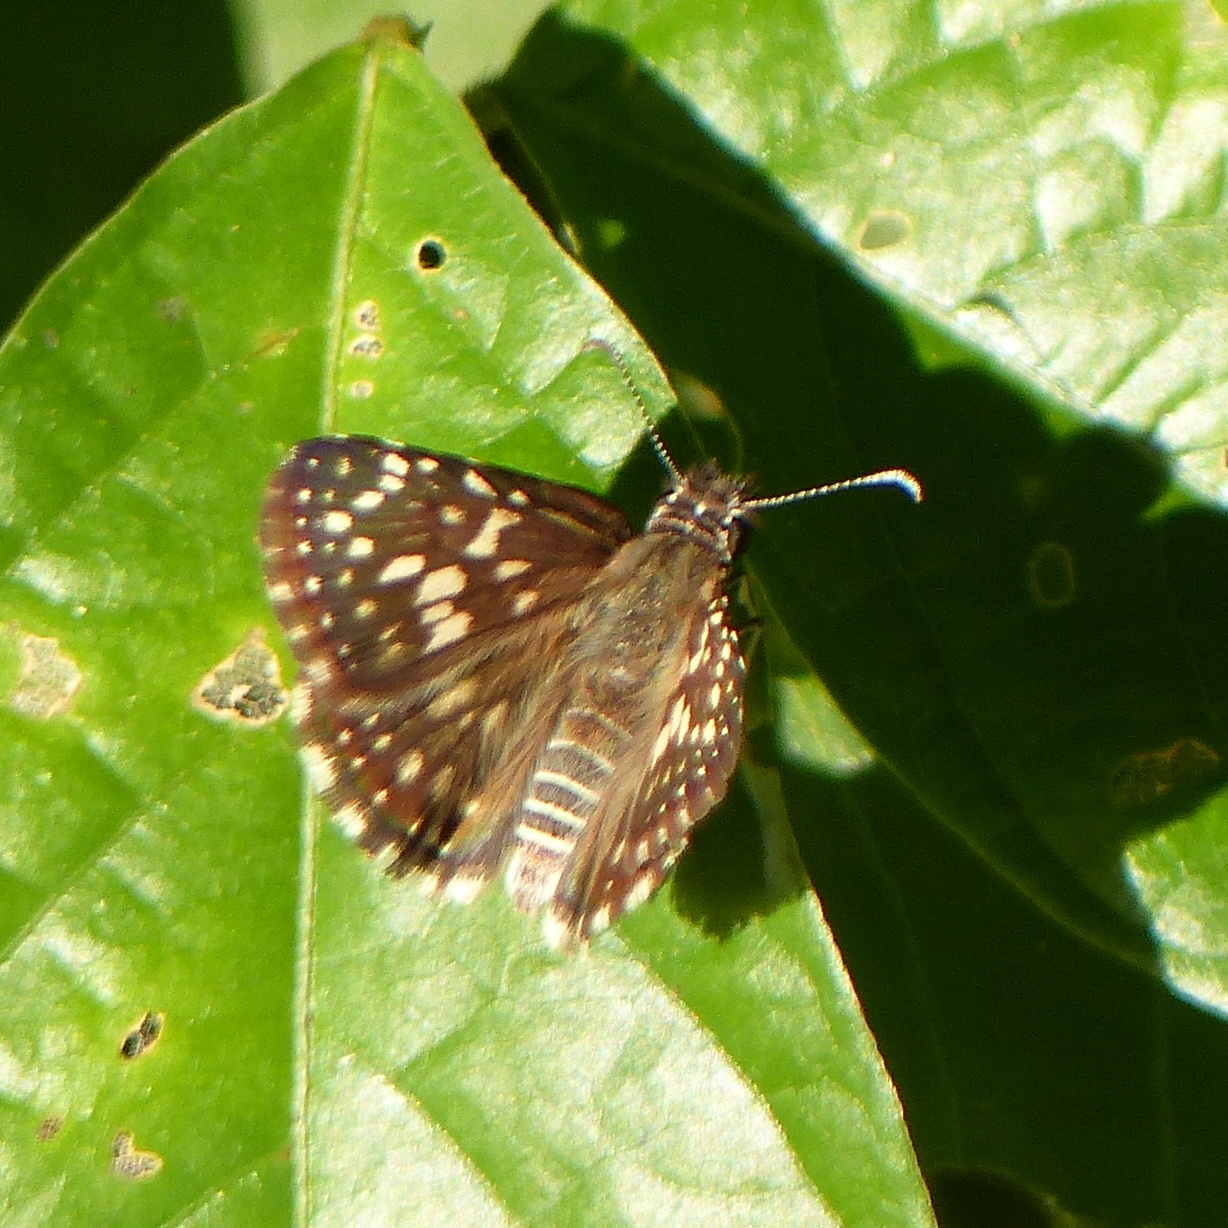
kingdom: Animalia
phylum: Arthropoda
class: Insecta
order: Lepidoptera
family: Hesperiidae
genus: Pyrgus
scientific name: Pyrgus oileus
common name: Tropical checkered-skipper
